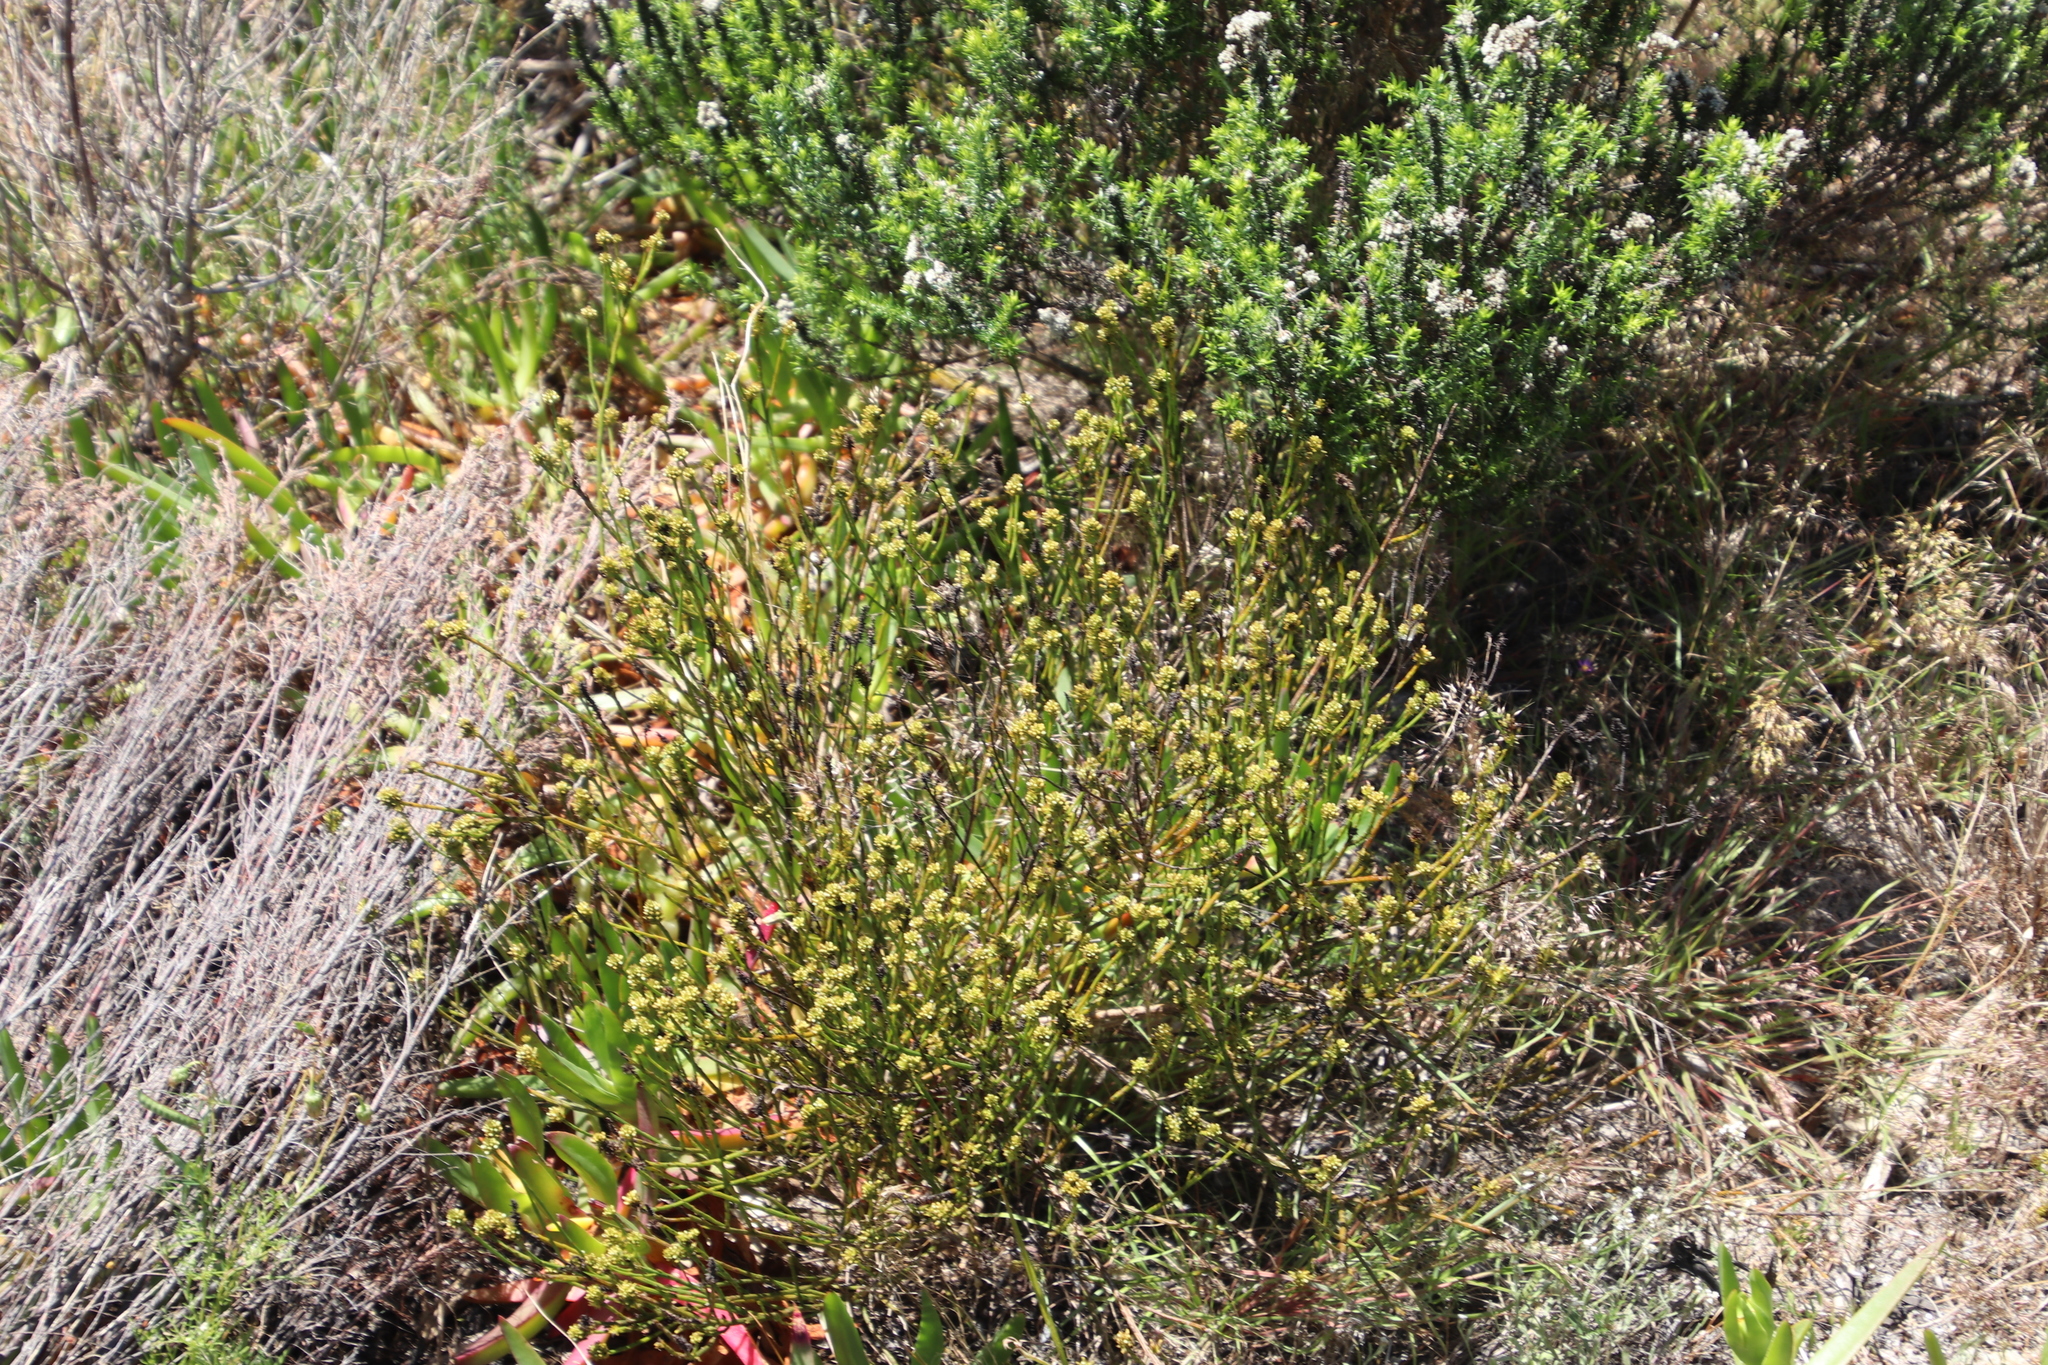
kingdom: Plantae
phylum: Tracheophyta
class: Magnoliopsida
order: Santalales
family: Thesiaceae
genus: Thesium
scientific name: Thesium aggregatum
